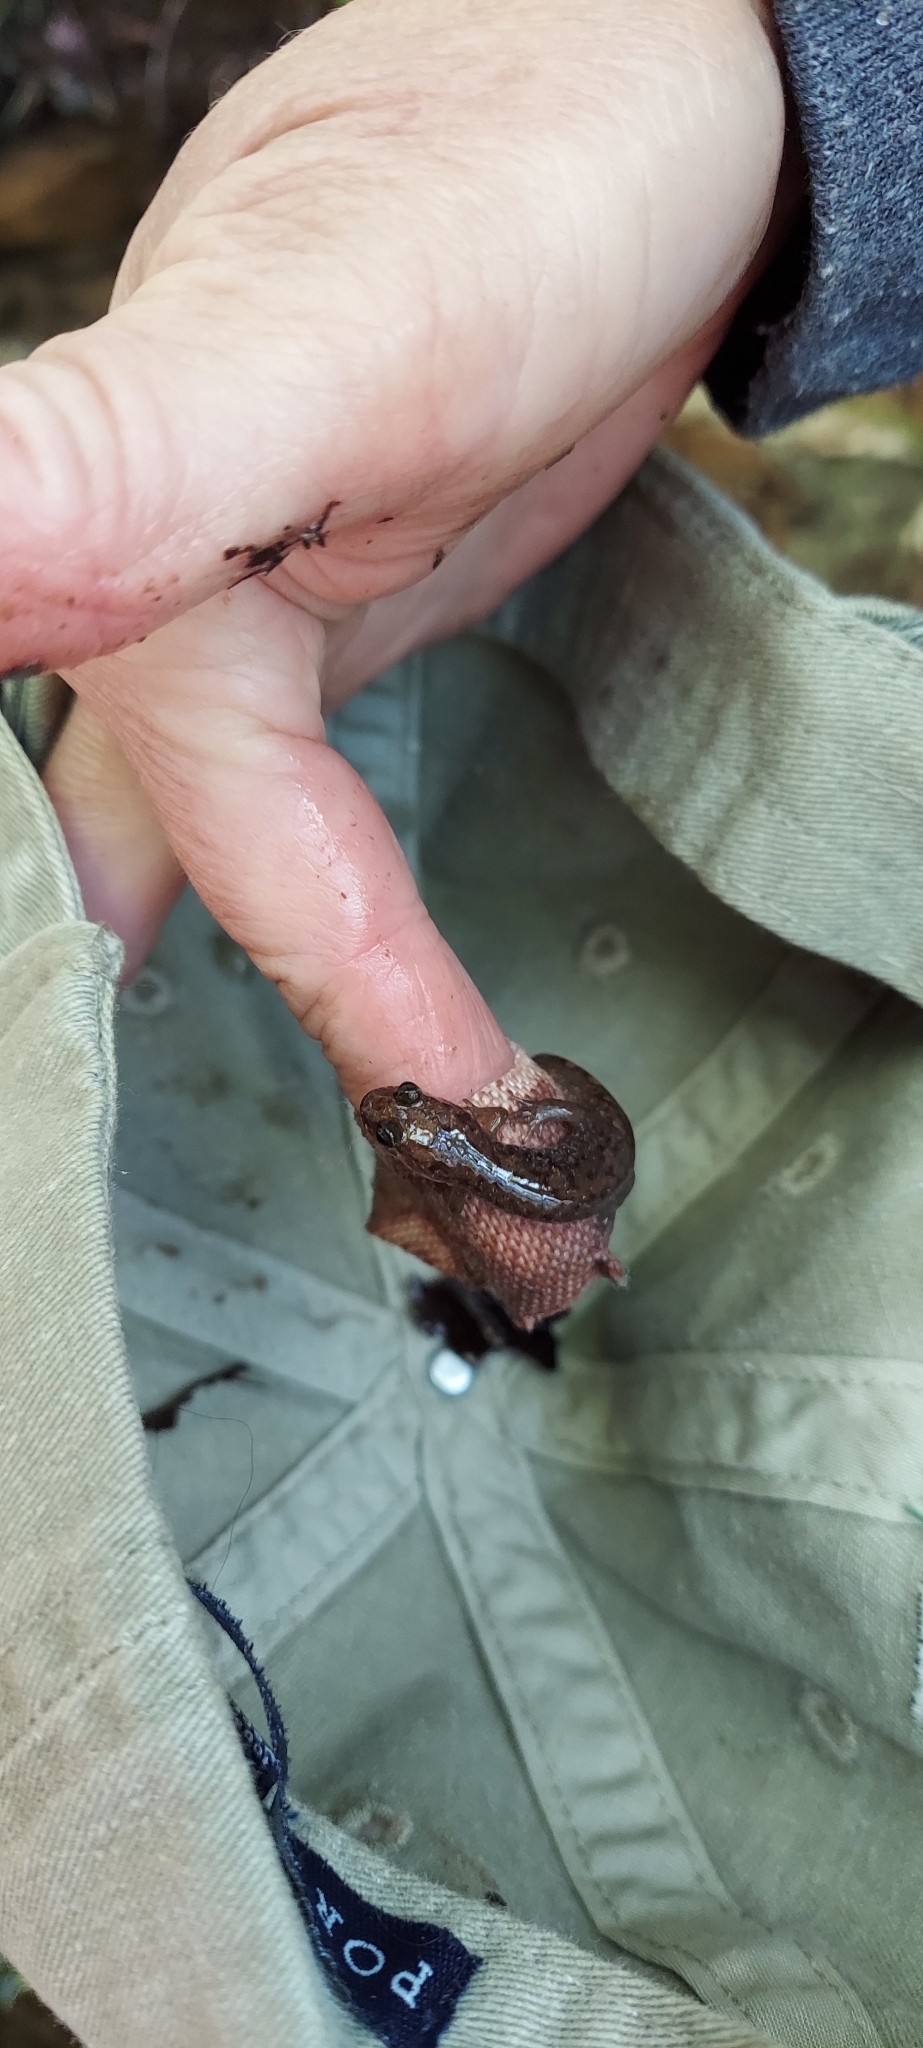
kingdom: Animalia
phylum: Chordata
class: Amphibia
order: Caudata
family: Plethodontidae
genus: Desmognathus
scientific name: Desmognathus monticola
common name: Seal salamander
